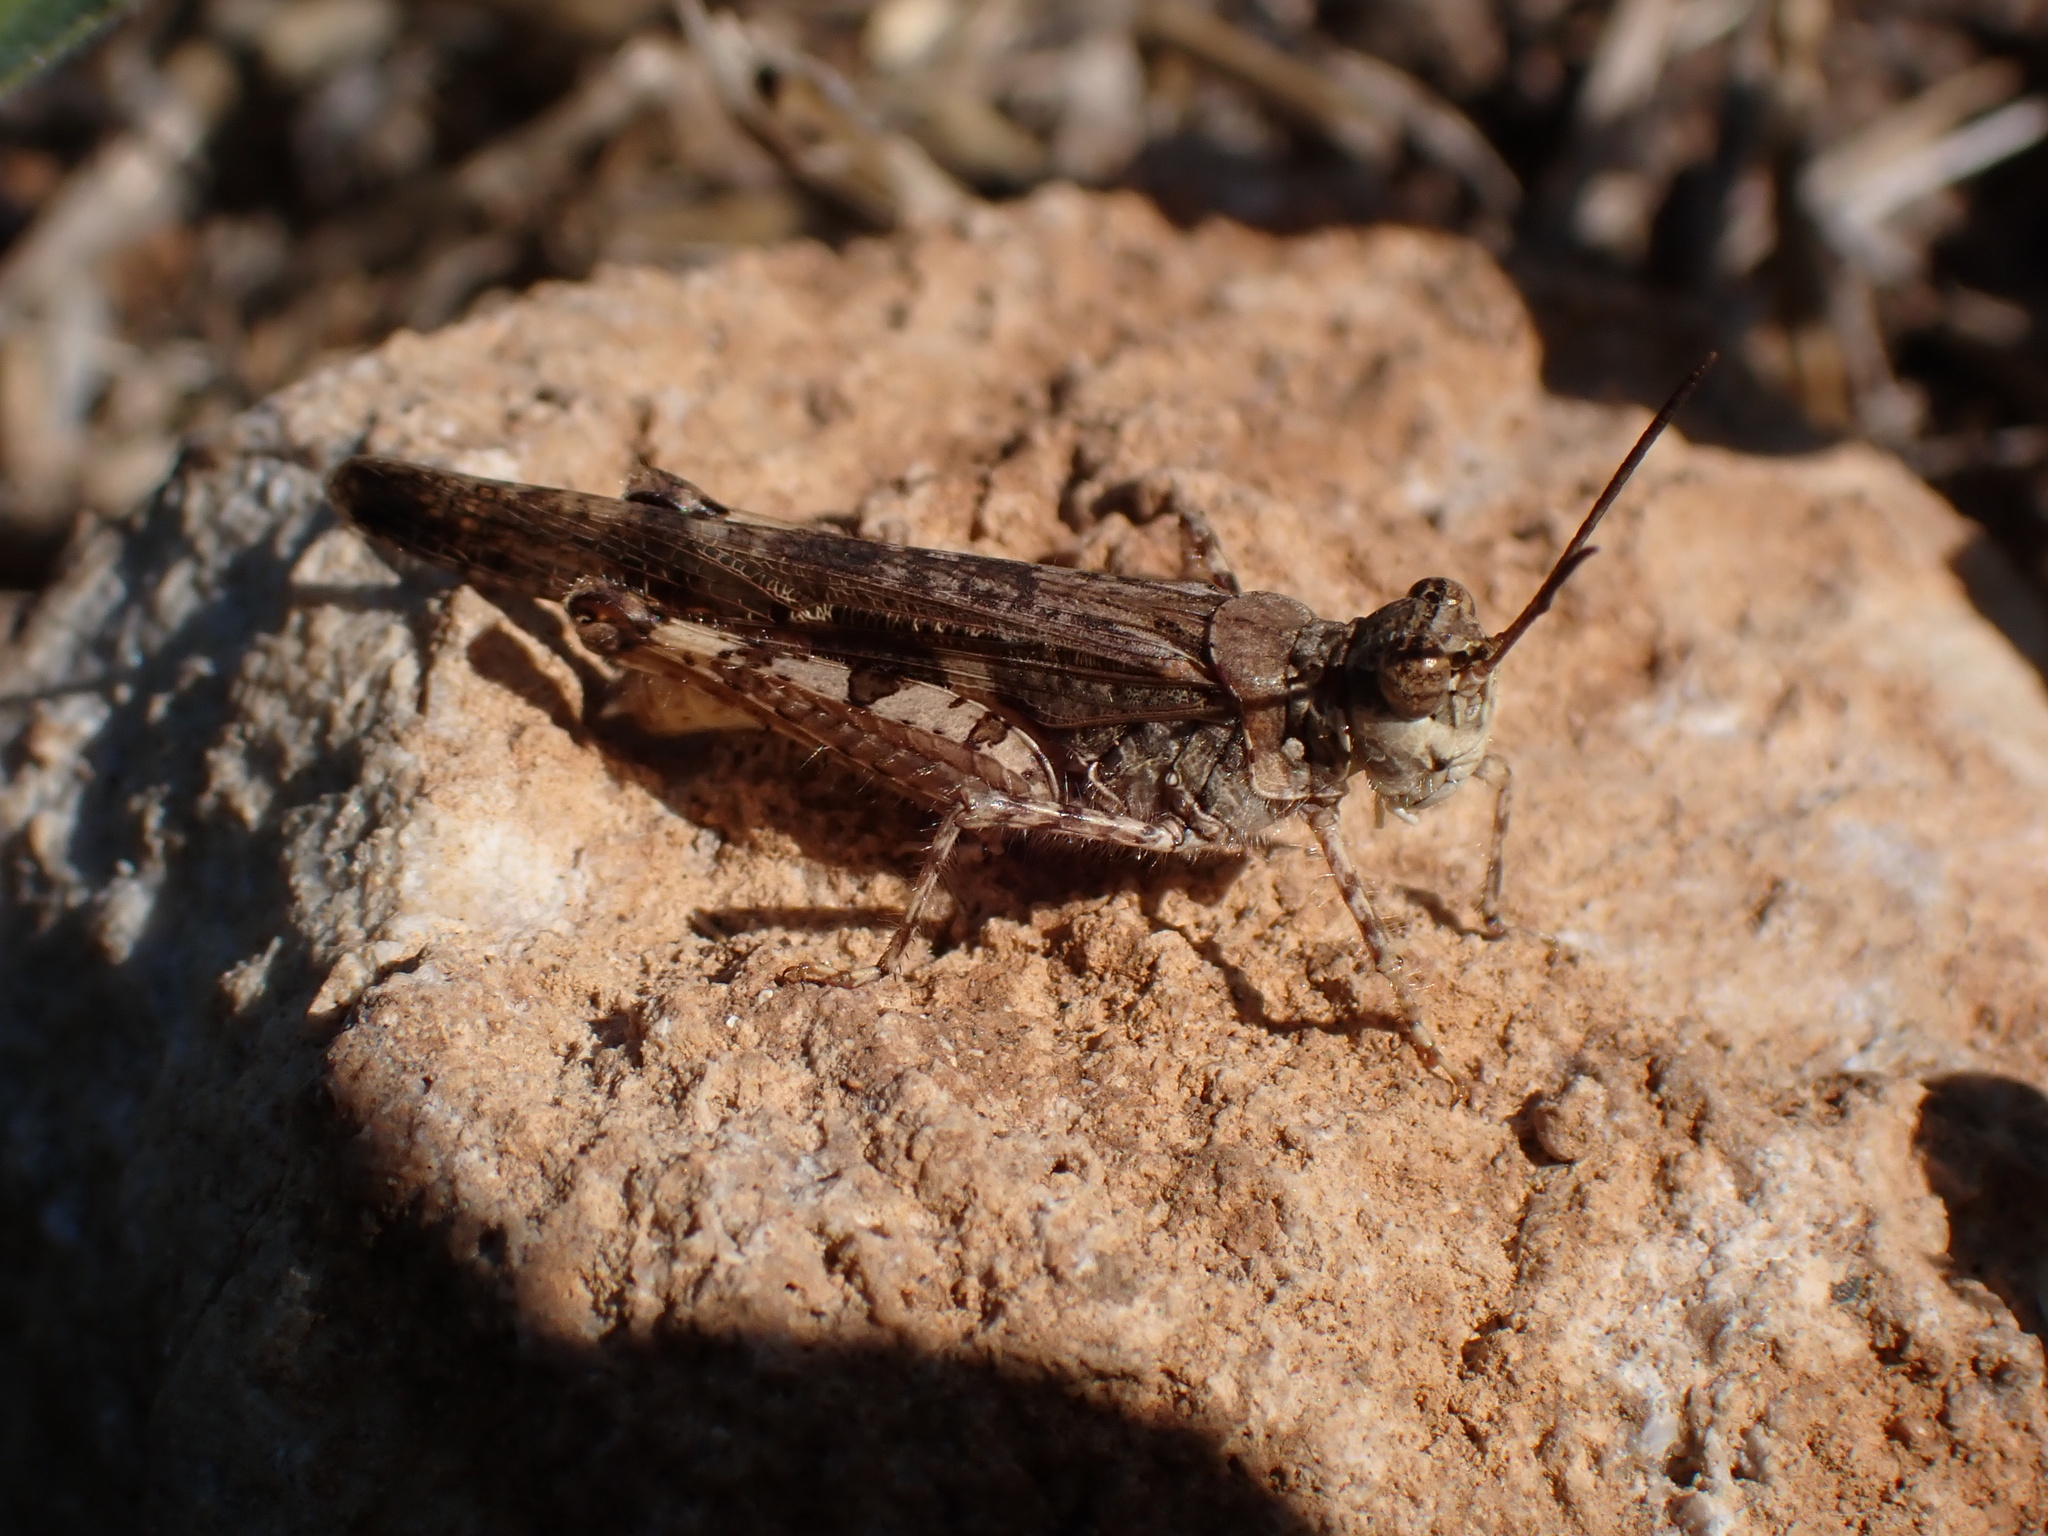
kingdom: Animalia
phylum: Arthropoda
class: Insecta
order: Orthoptera
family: Acrididae
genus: Acrotylus
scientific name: Acrotylus patruelis
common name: Slender burrowing grasshopper
